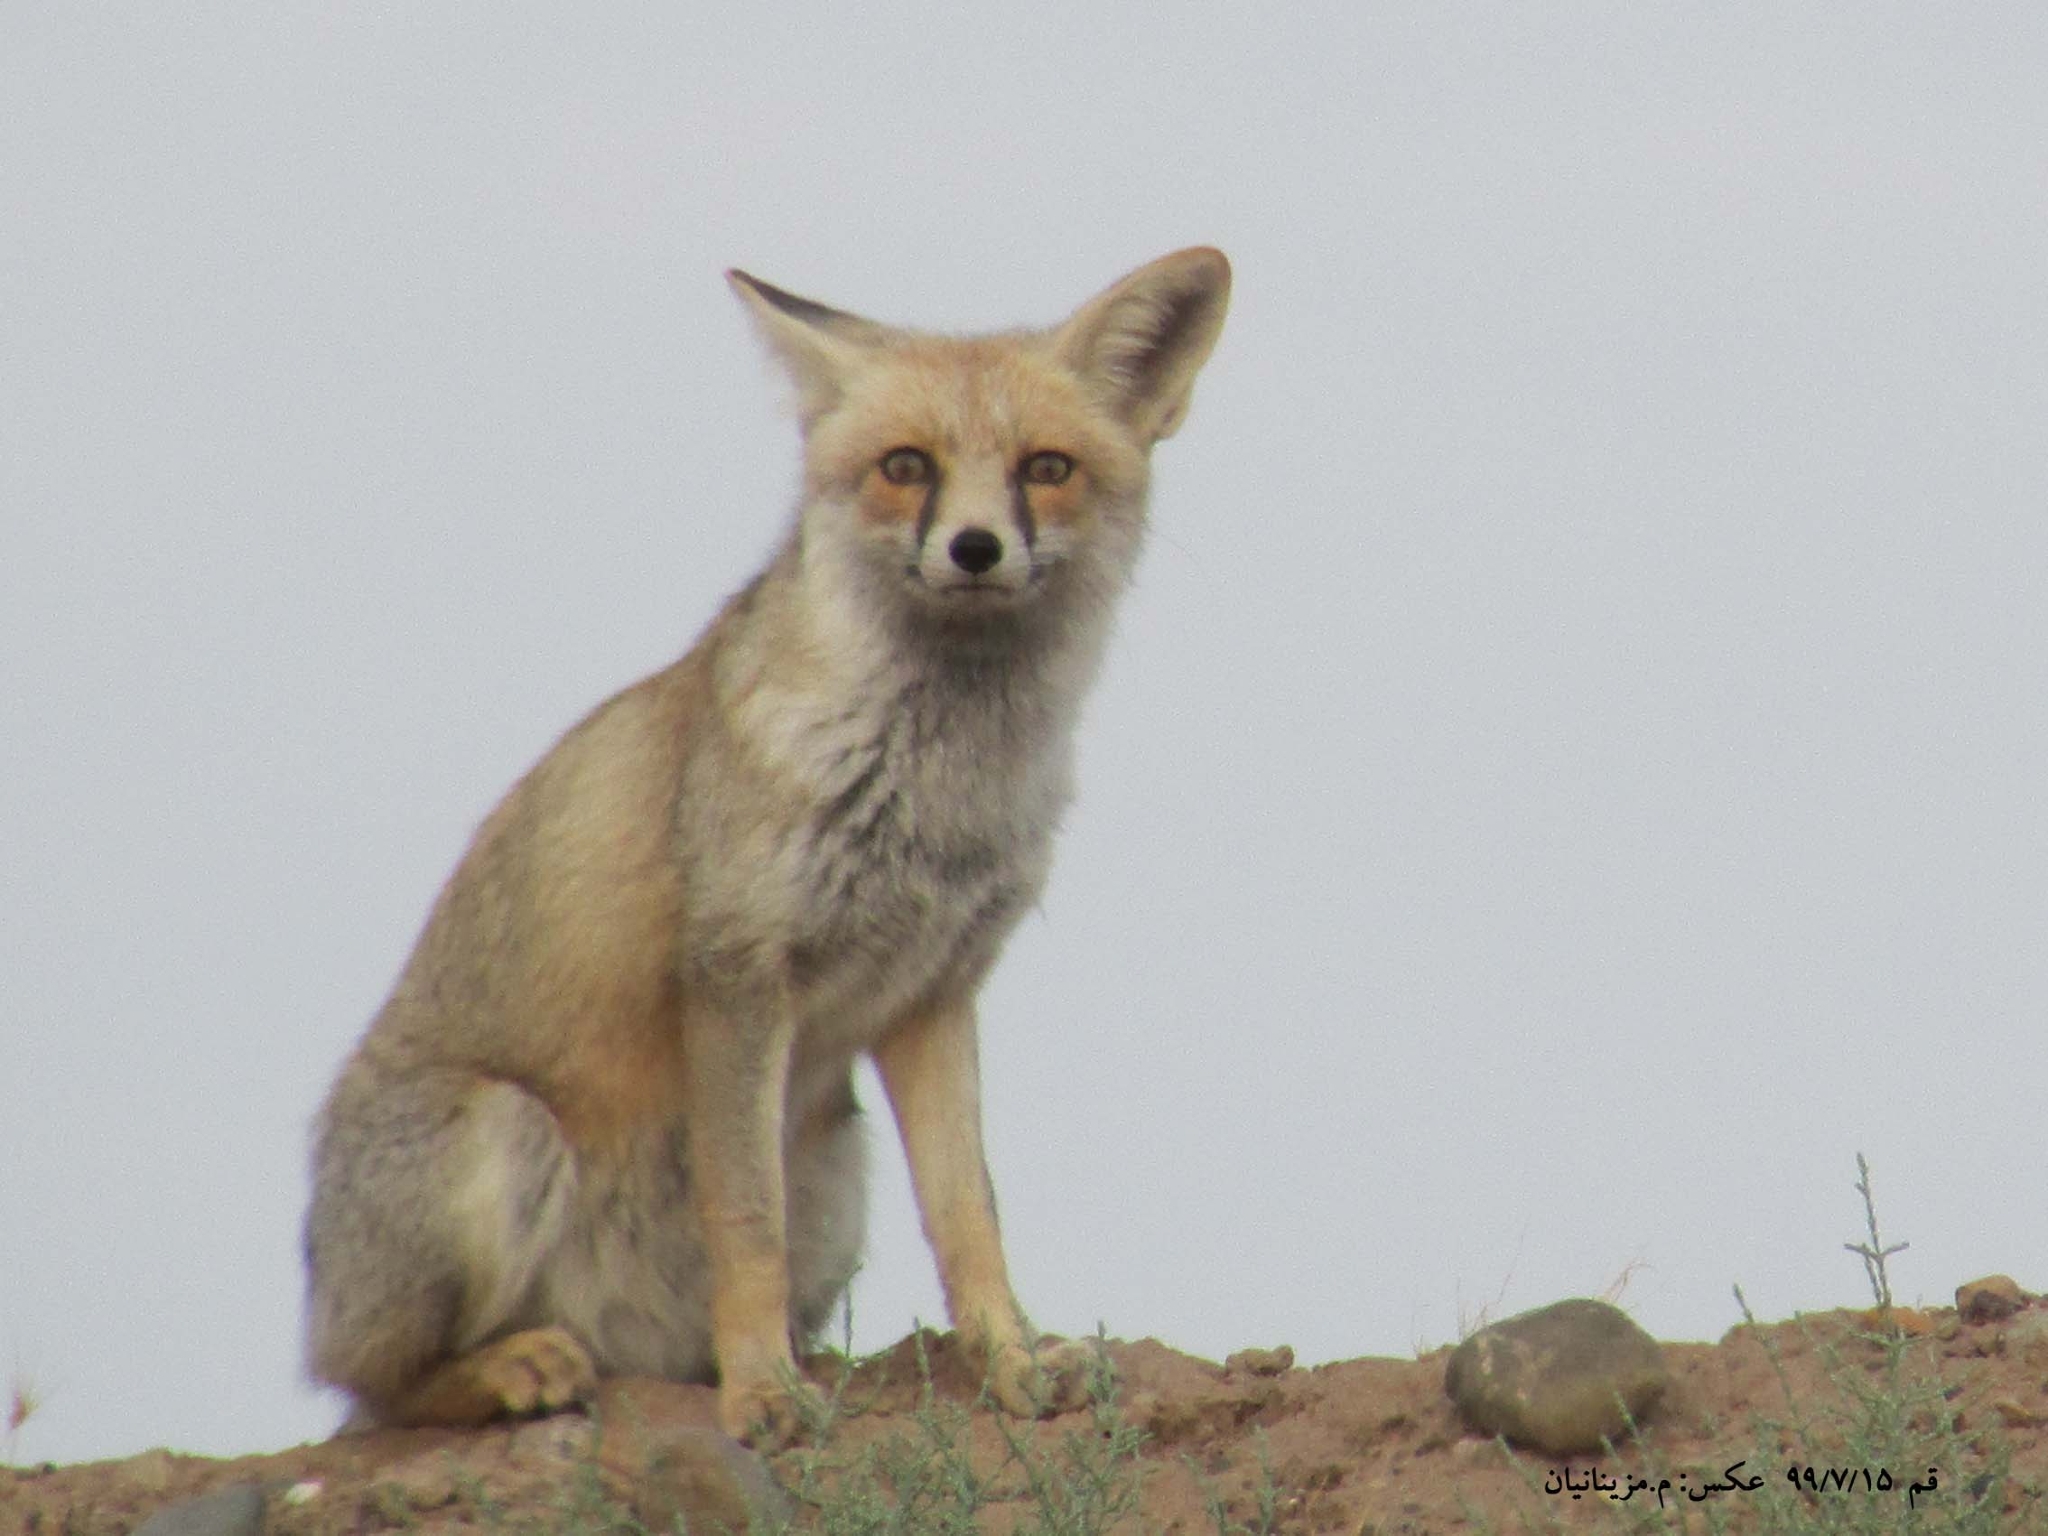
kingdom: Animalia
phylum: Chordata
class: Mammalia
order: Carnivora
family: Canidae
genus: Vulpes
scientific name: Vulpes vulpes
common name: Red fox
